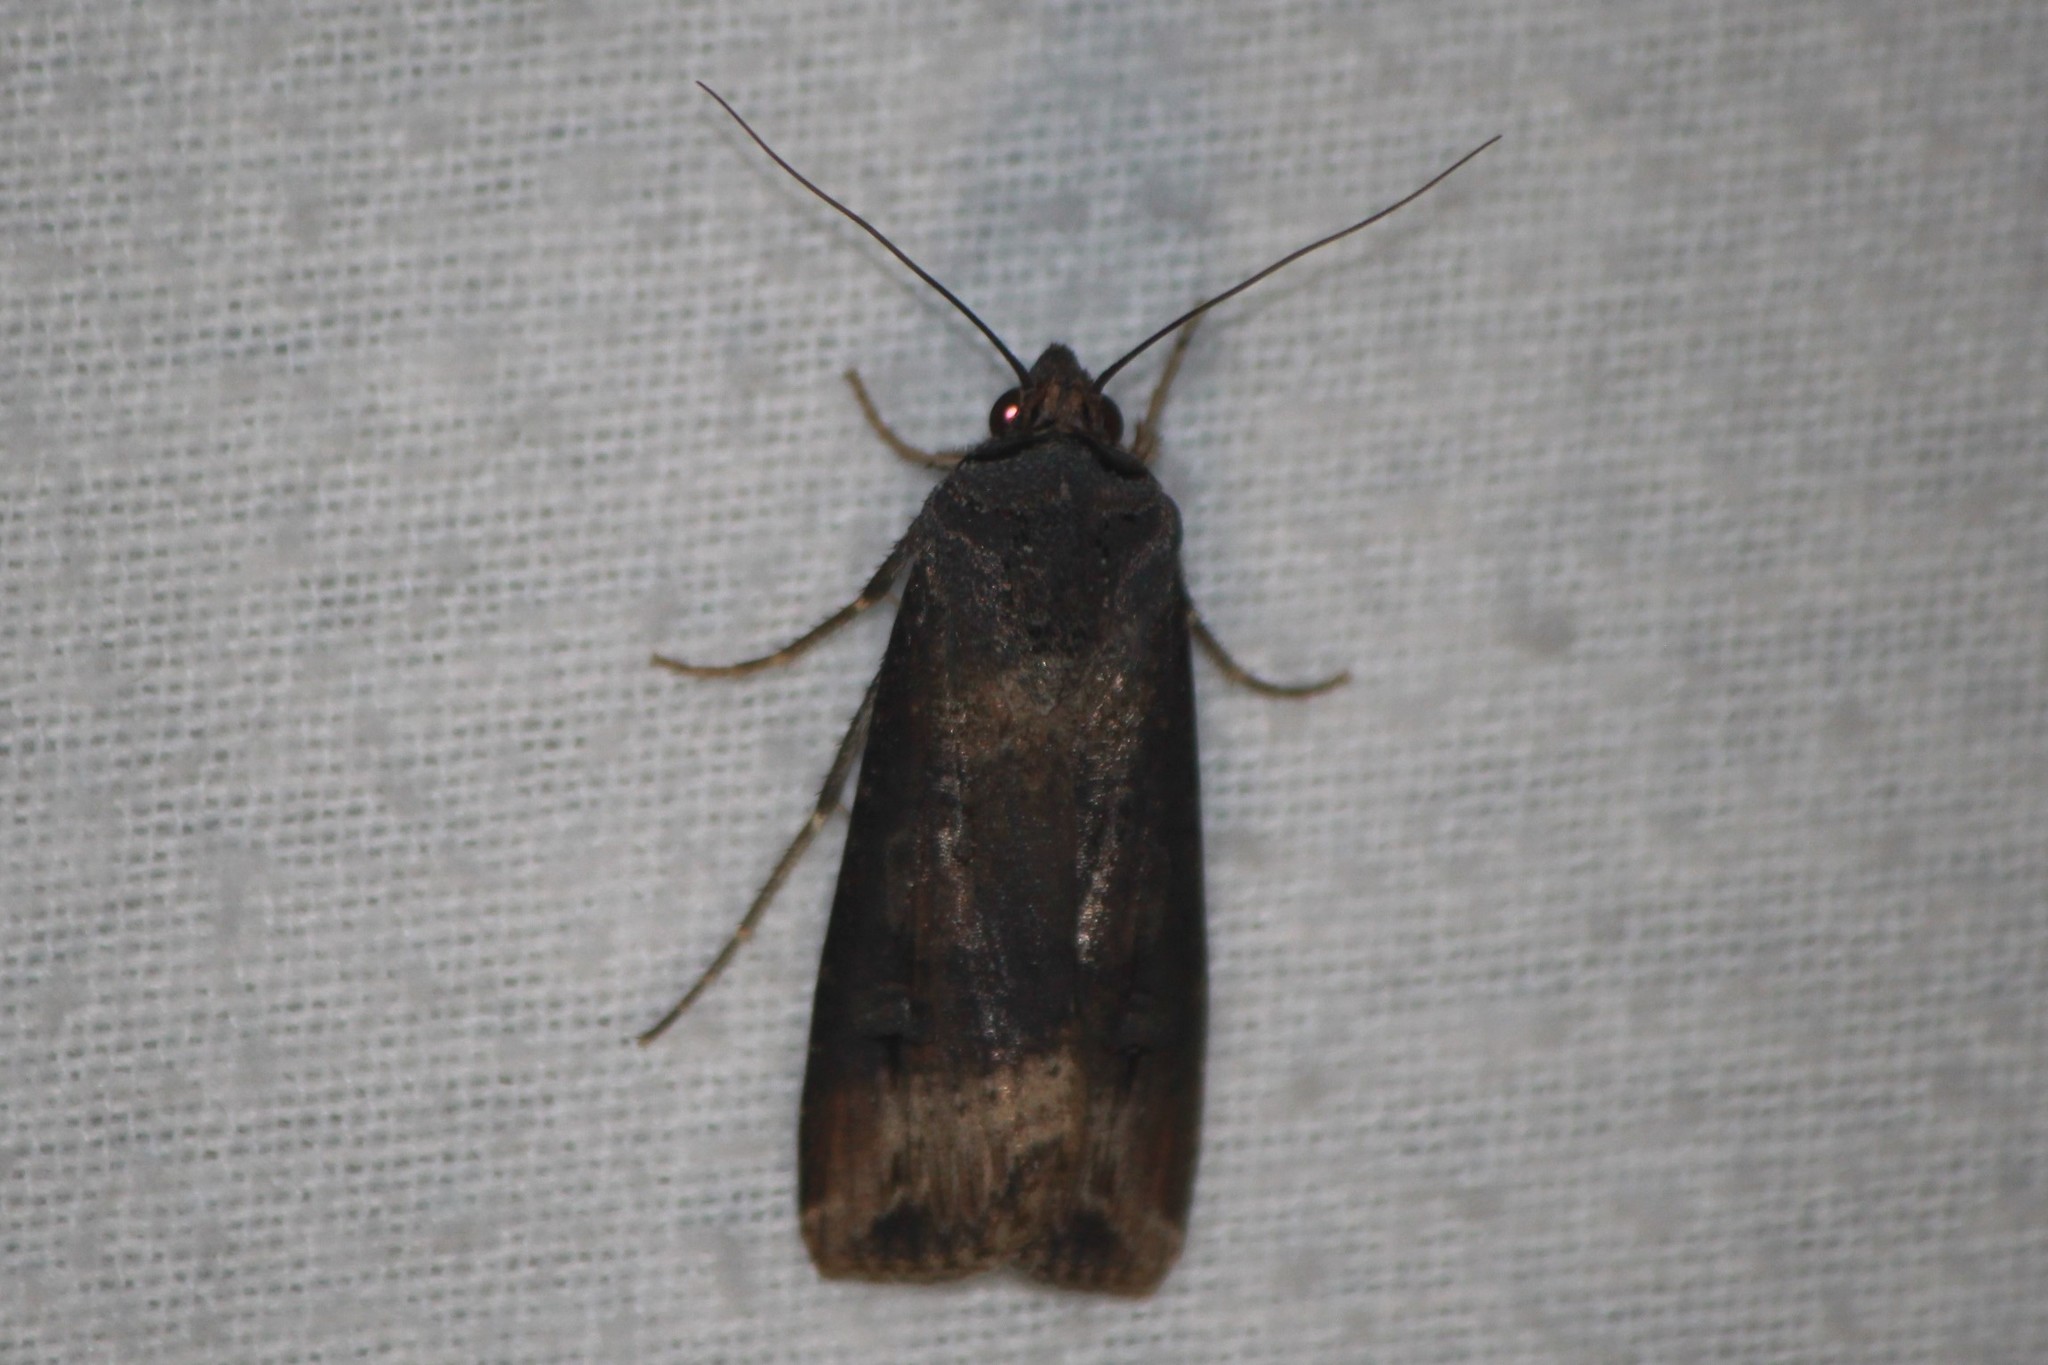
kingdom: Animalia
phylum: Arthropoda
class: Insecta
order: Lepidoptera
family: Noctuidae
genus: Agrotis
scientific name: Agrotis ipsilon
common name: Dark sword-grass
